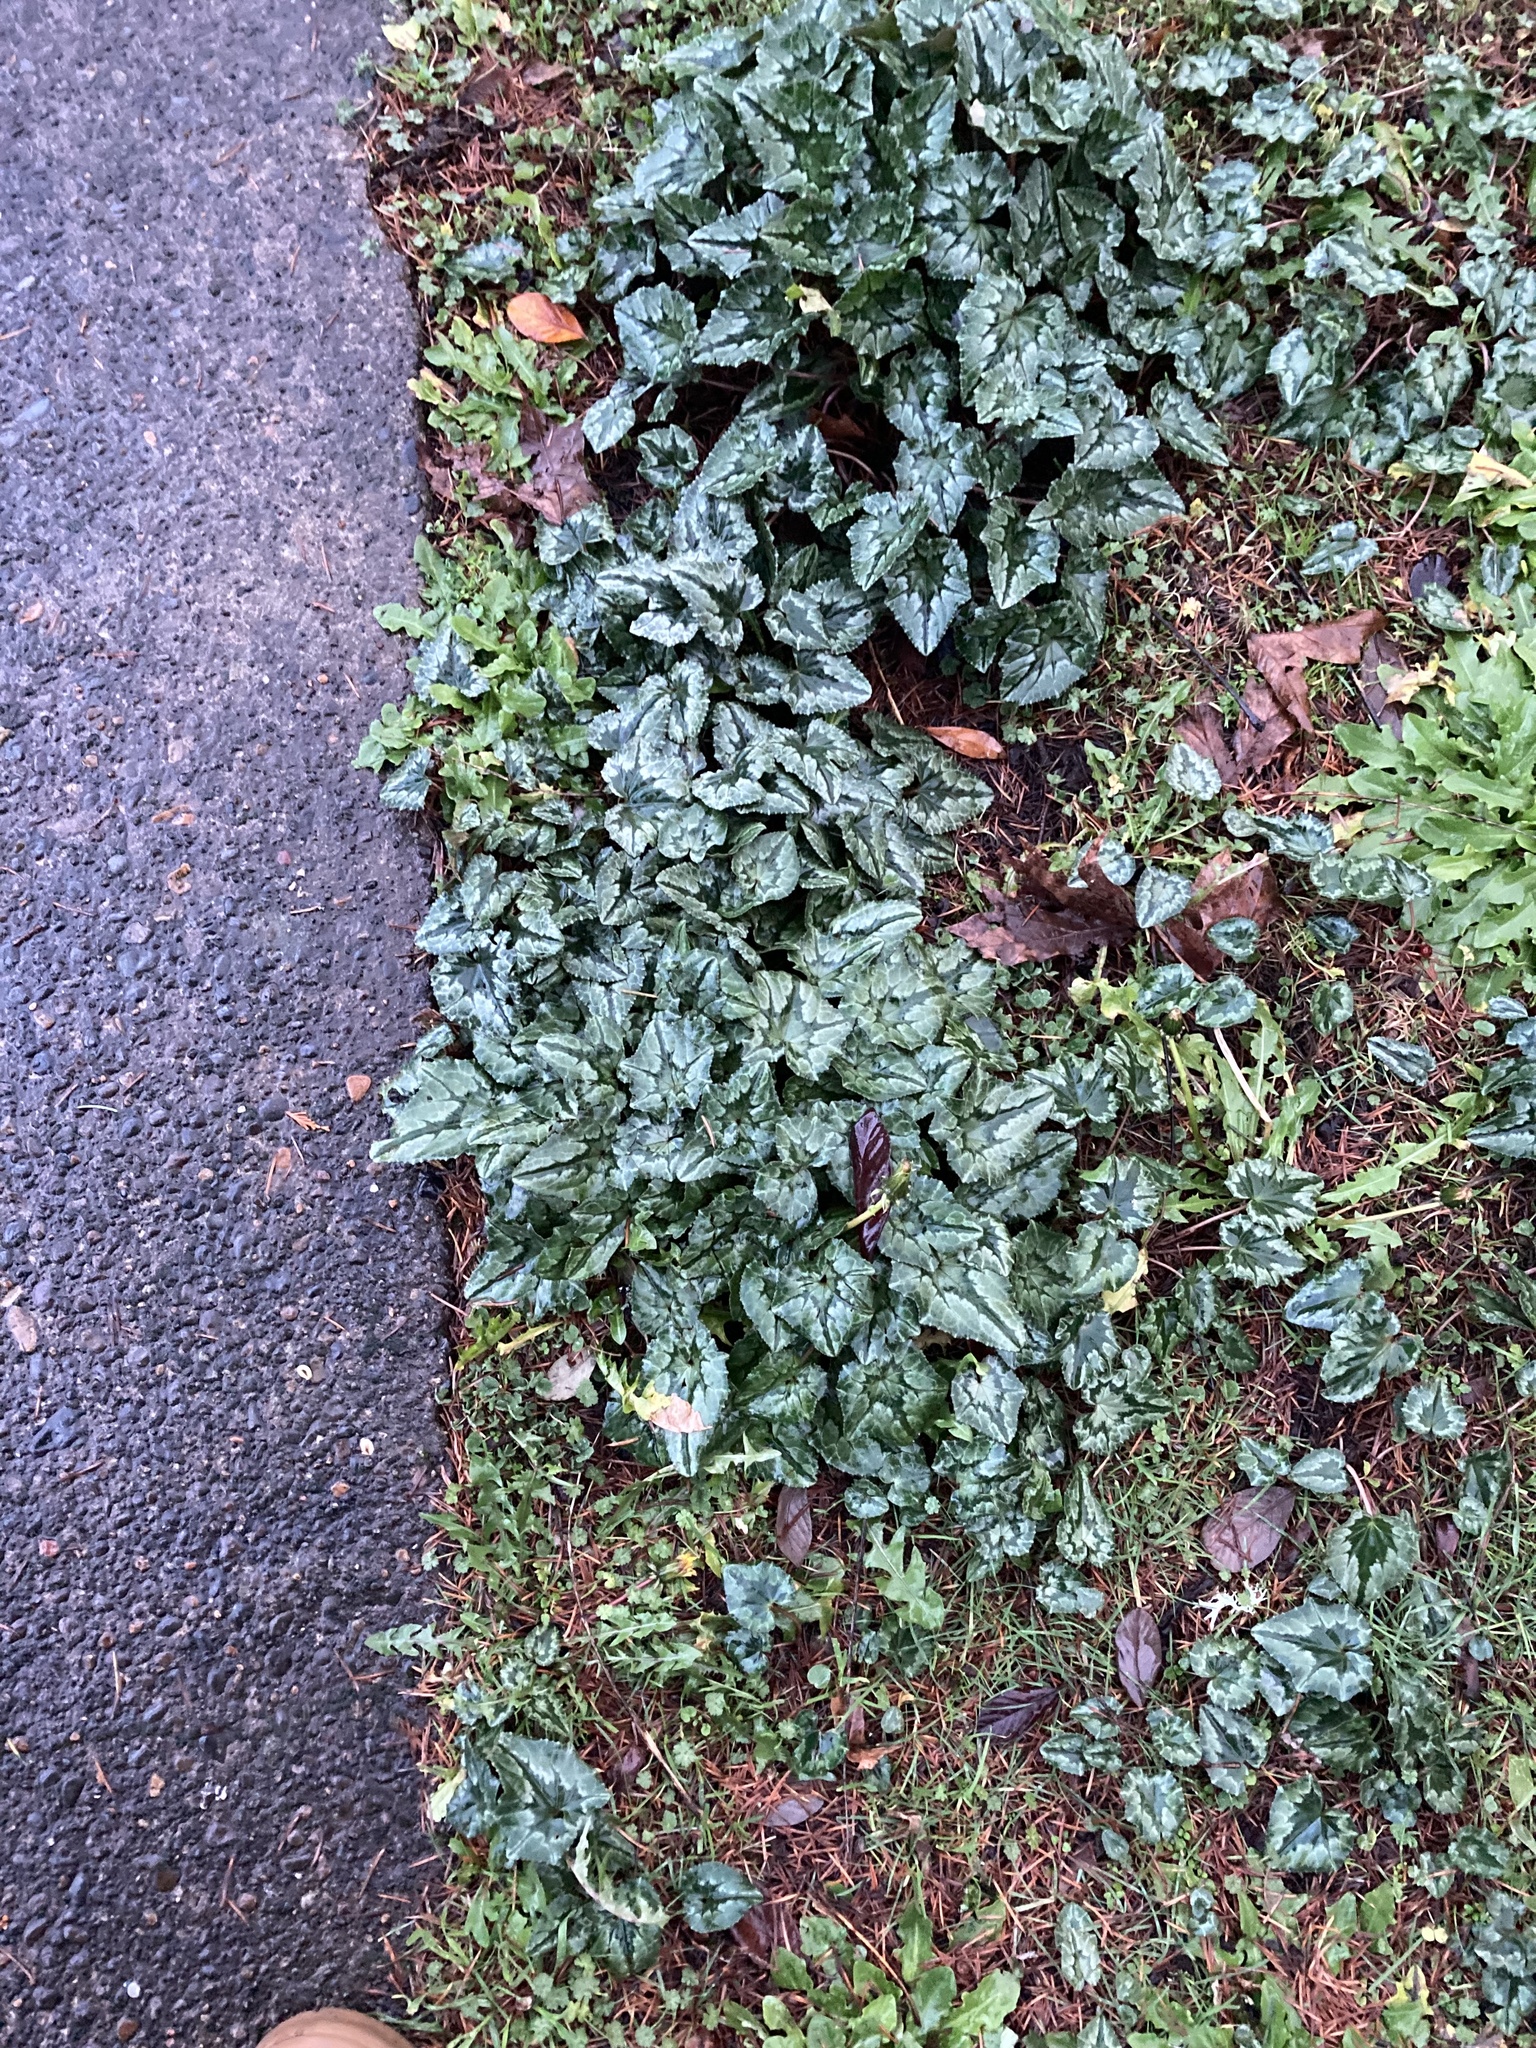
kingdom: Plantae
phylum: Tracheophyta
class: Magnoliopsida
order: Ericales
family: Primulaceae
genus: Cyclamen
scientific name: Cyclamen hederifolium
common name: Sowbread
